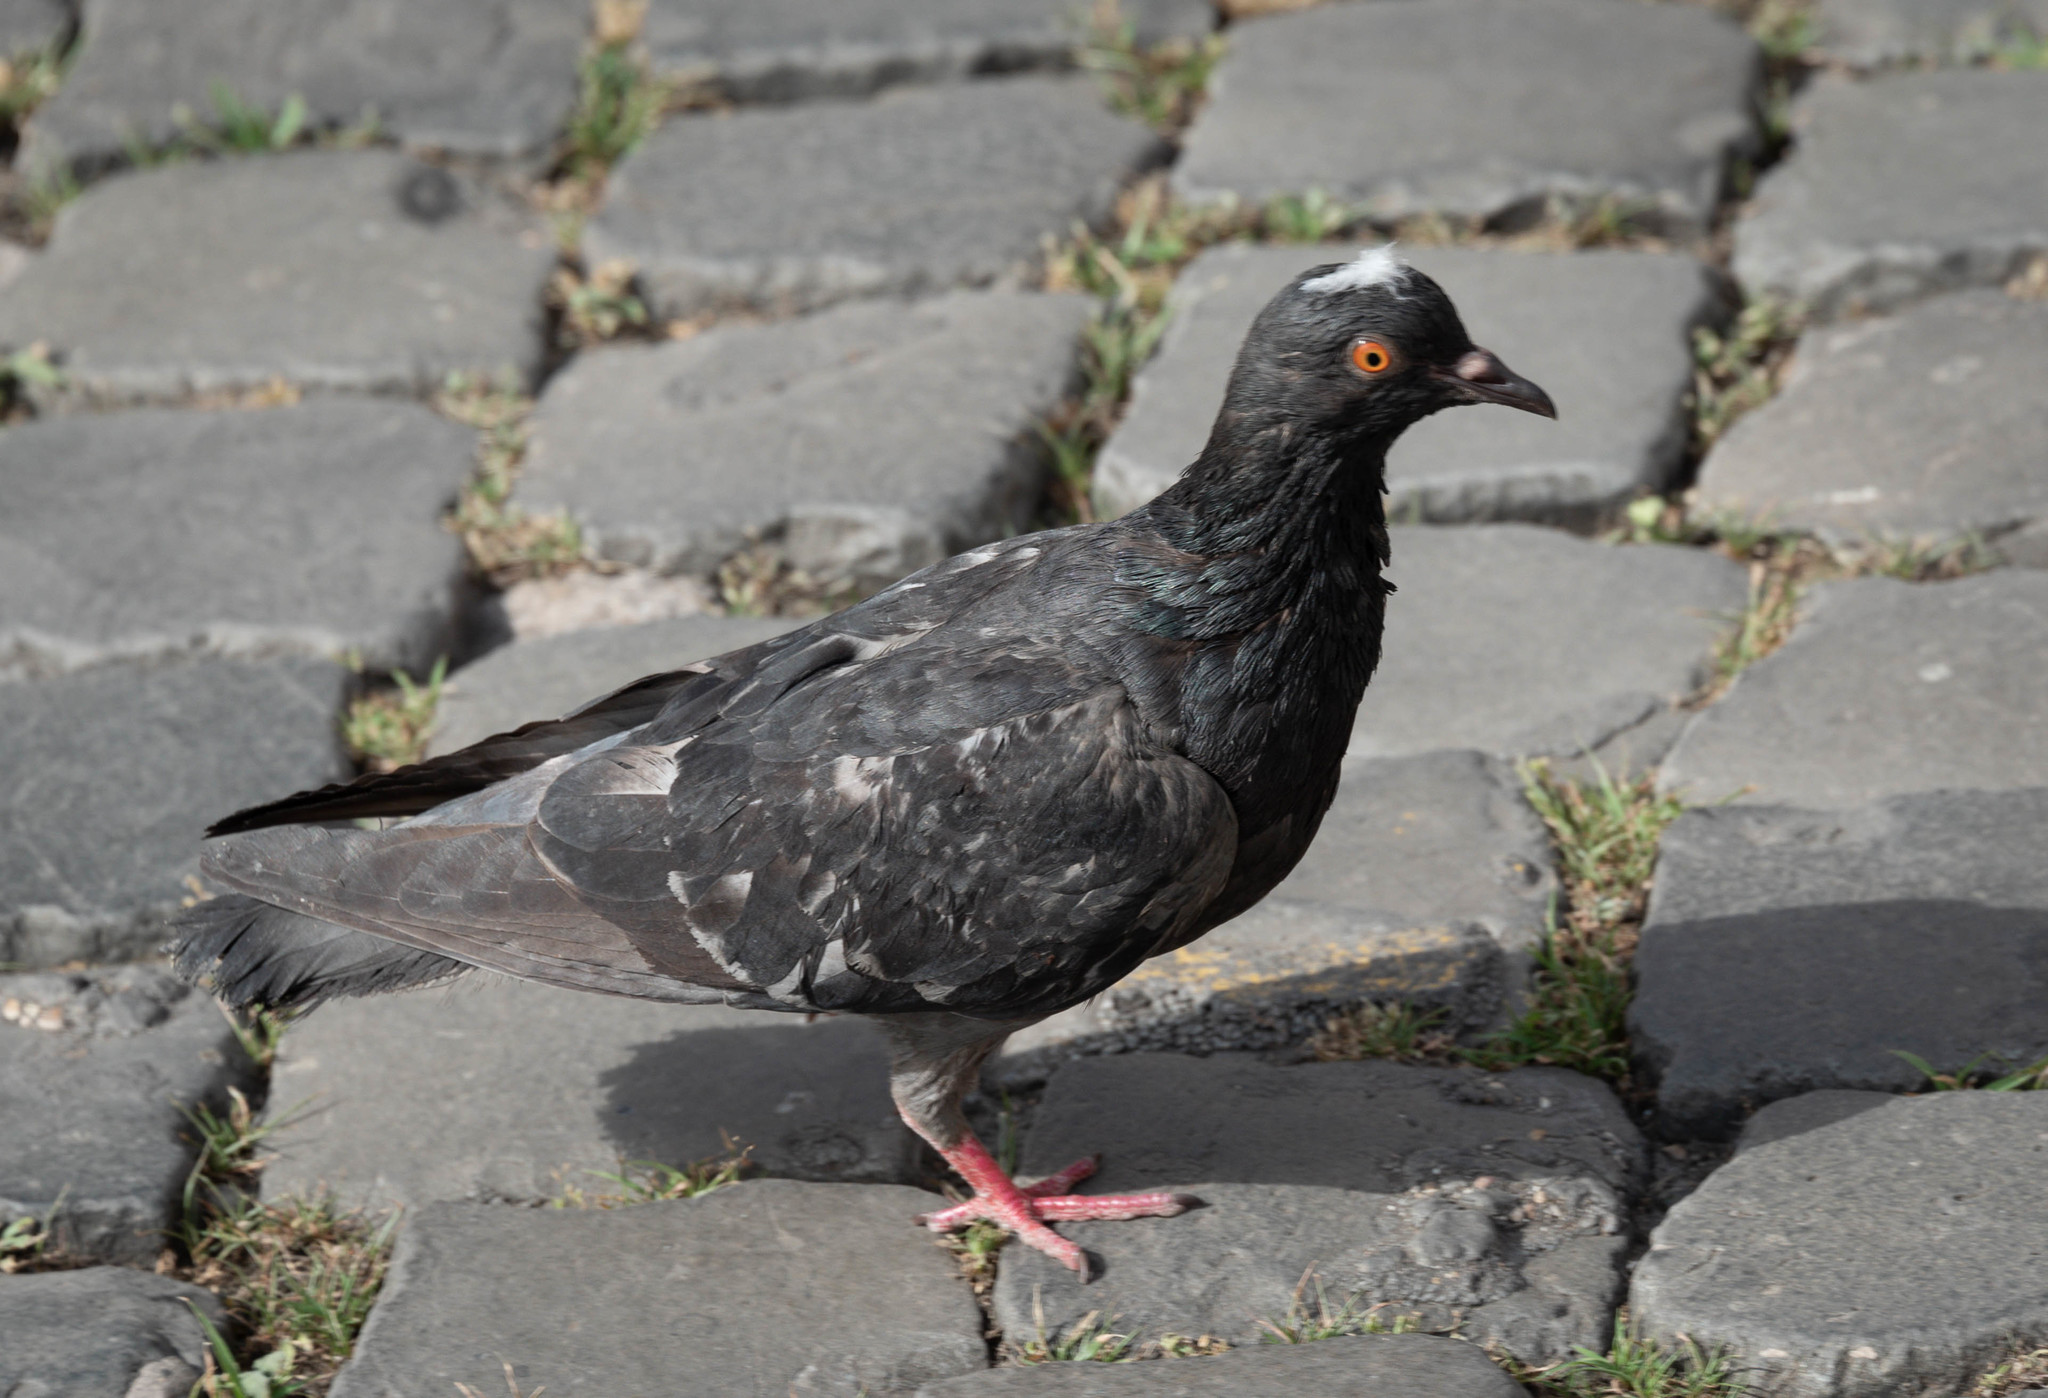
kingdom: Animalia
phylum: Chordata
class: Aves
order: Columbiformes
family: Columbidae
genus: Columba
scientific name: Columba livia
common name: Rock pigeon
